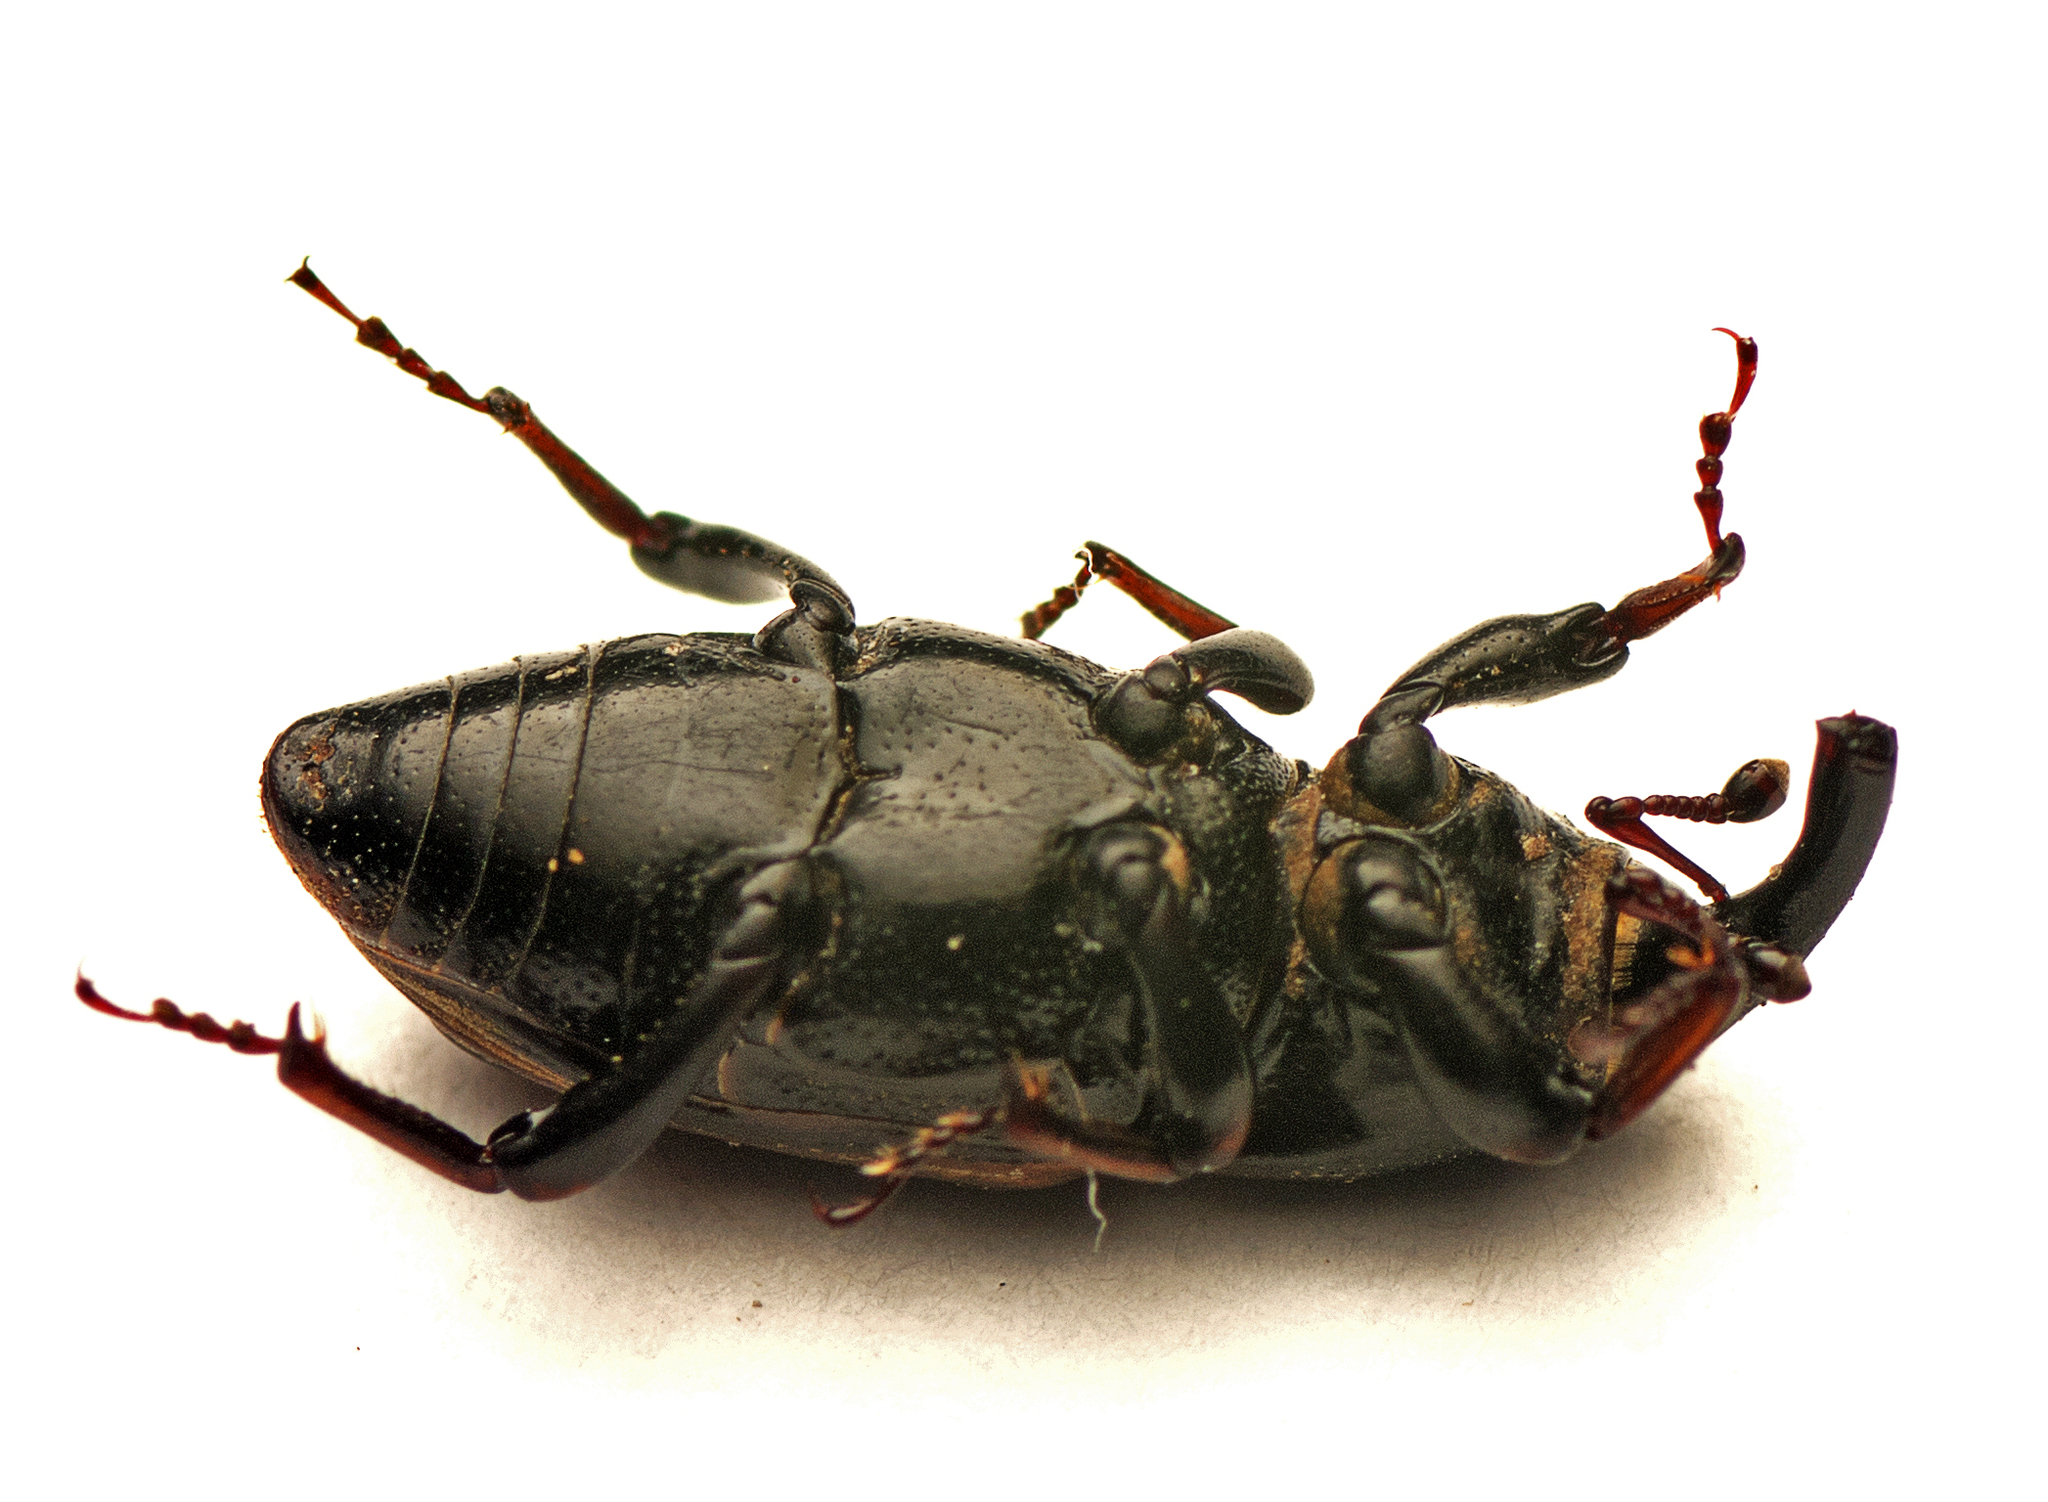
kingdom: Animalia
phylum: Arthropoda
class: Insecta
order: Coleoptera
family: Dryophthoridae
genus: Sphenophorus
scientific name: Sphenophorus brunnipennis
